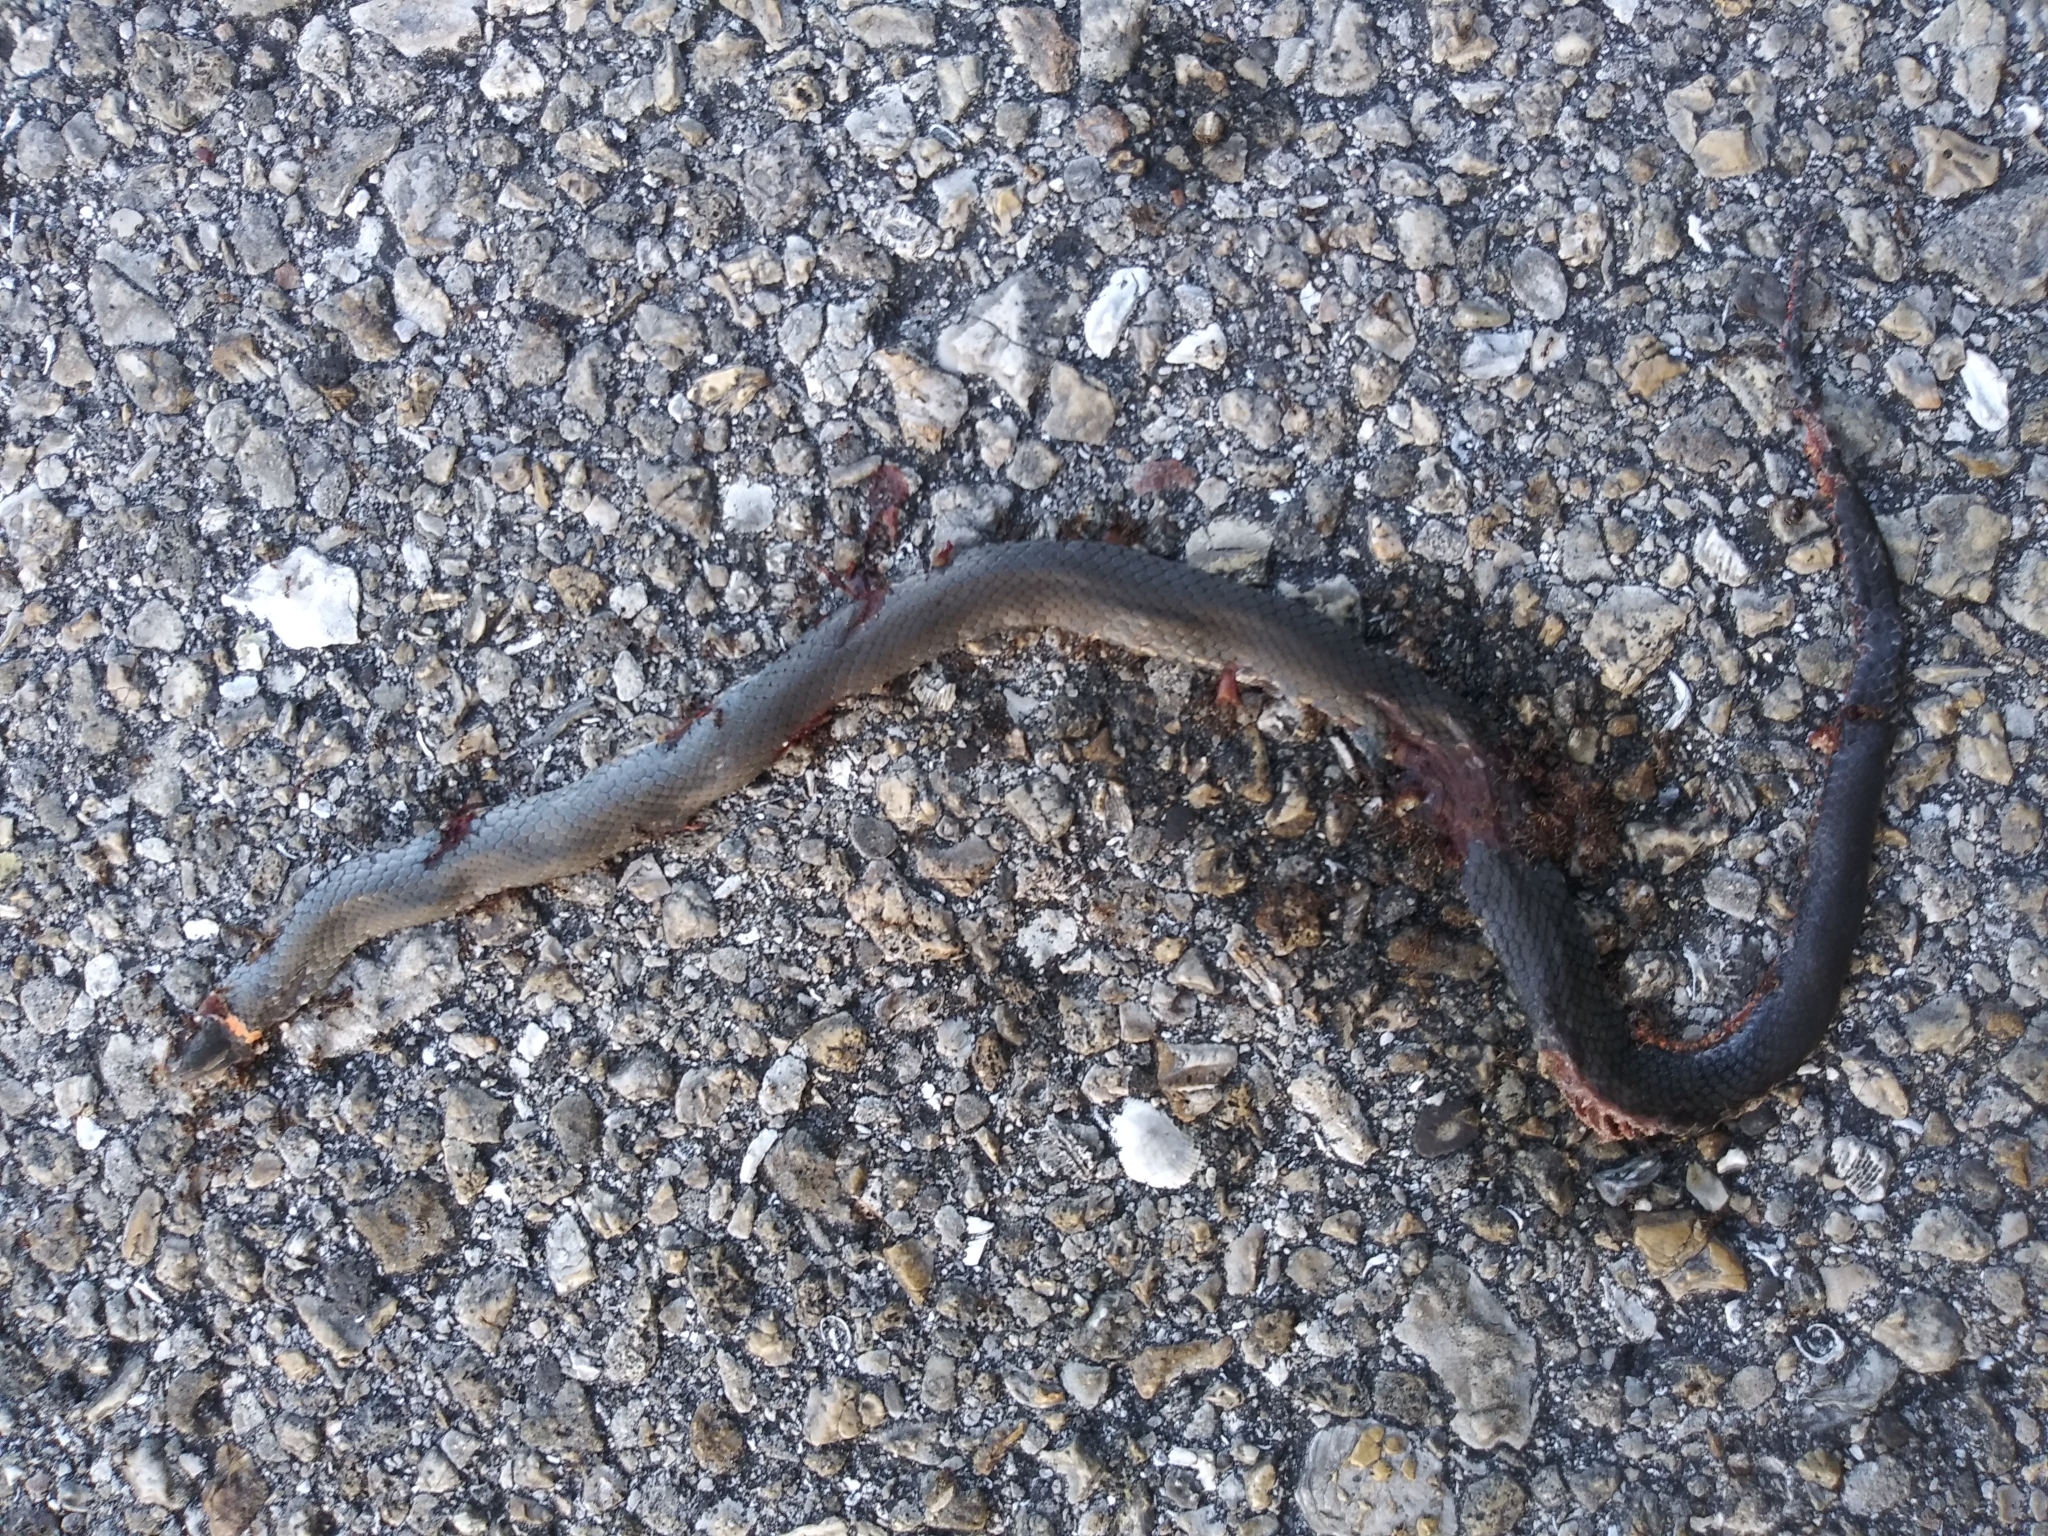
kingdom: Animalia
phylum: Chordata
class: Squamata
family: Colubridae
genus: Diadophis
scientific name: Diadophis punctatus
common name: Ringneck snake
